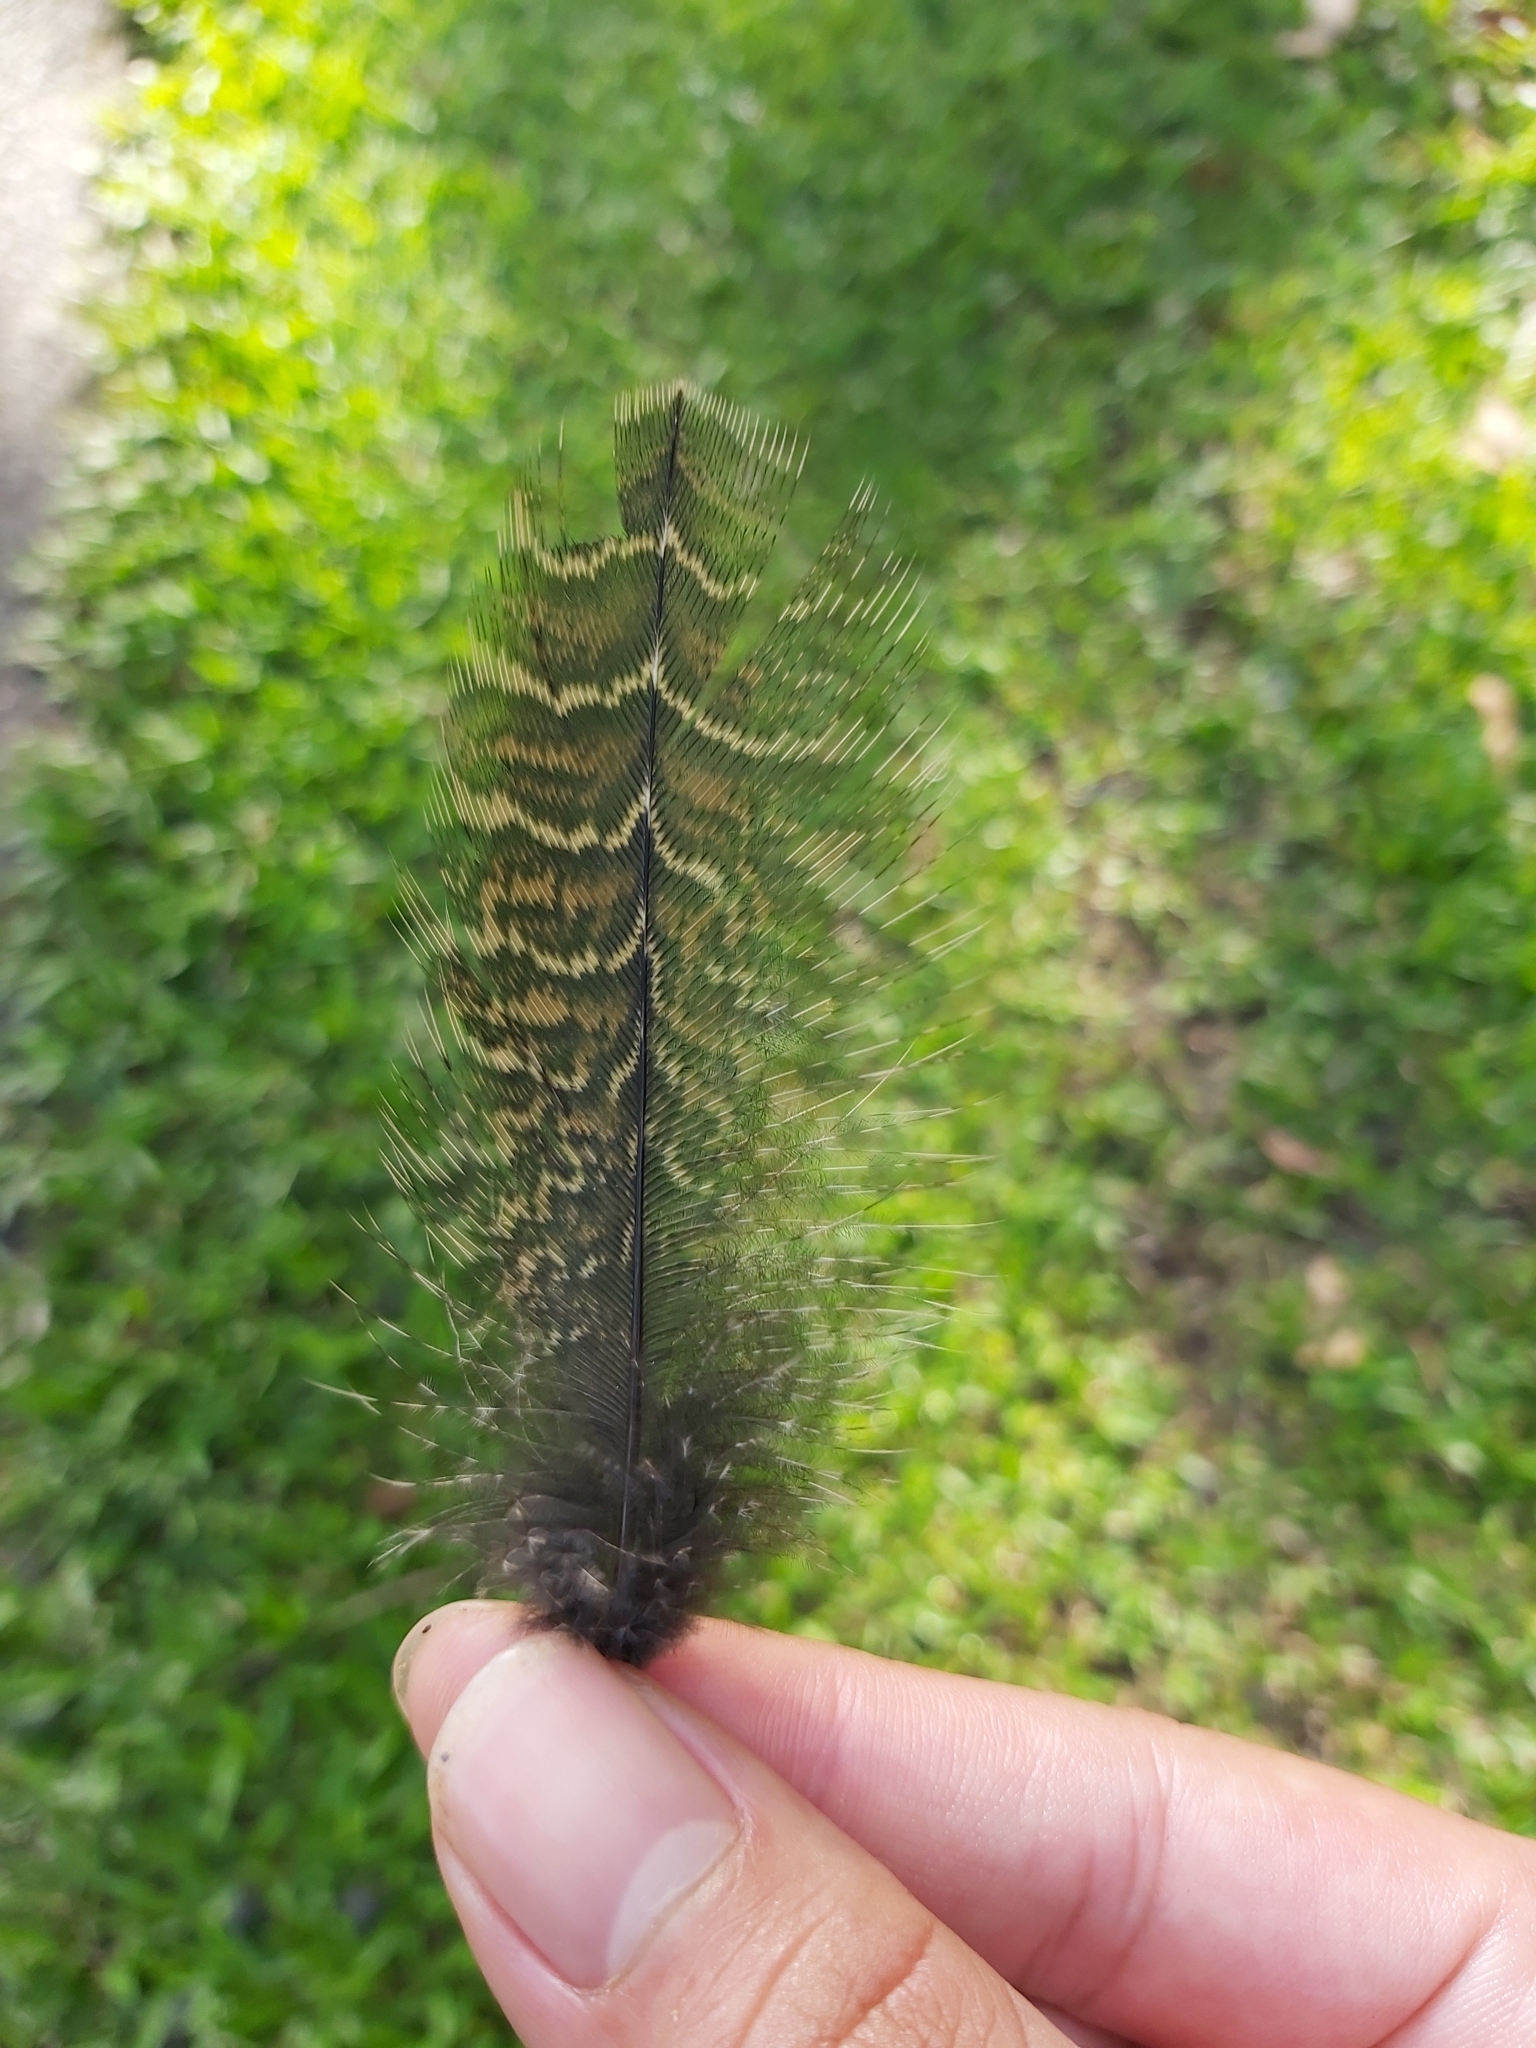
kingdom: Animalia
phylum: Chordata
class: Aves
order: Cuculiformes
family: Cuculidae
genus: Centropus
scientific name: Centropus phasianinus
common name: Pheasant coucal
